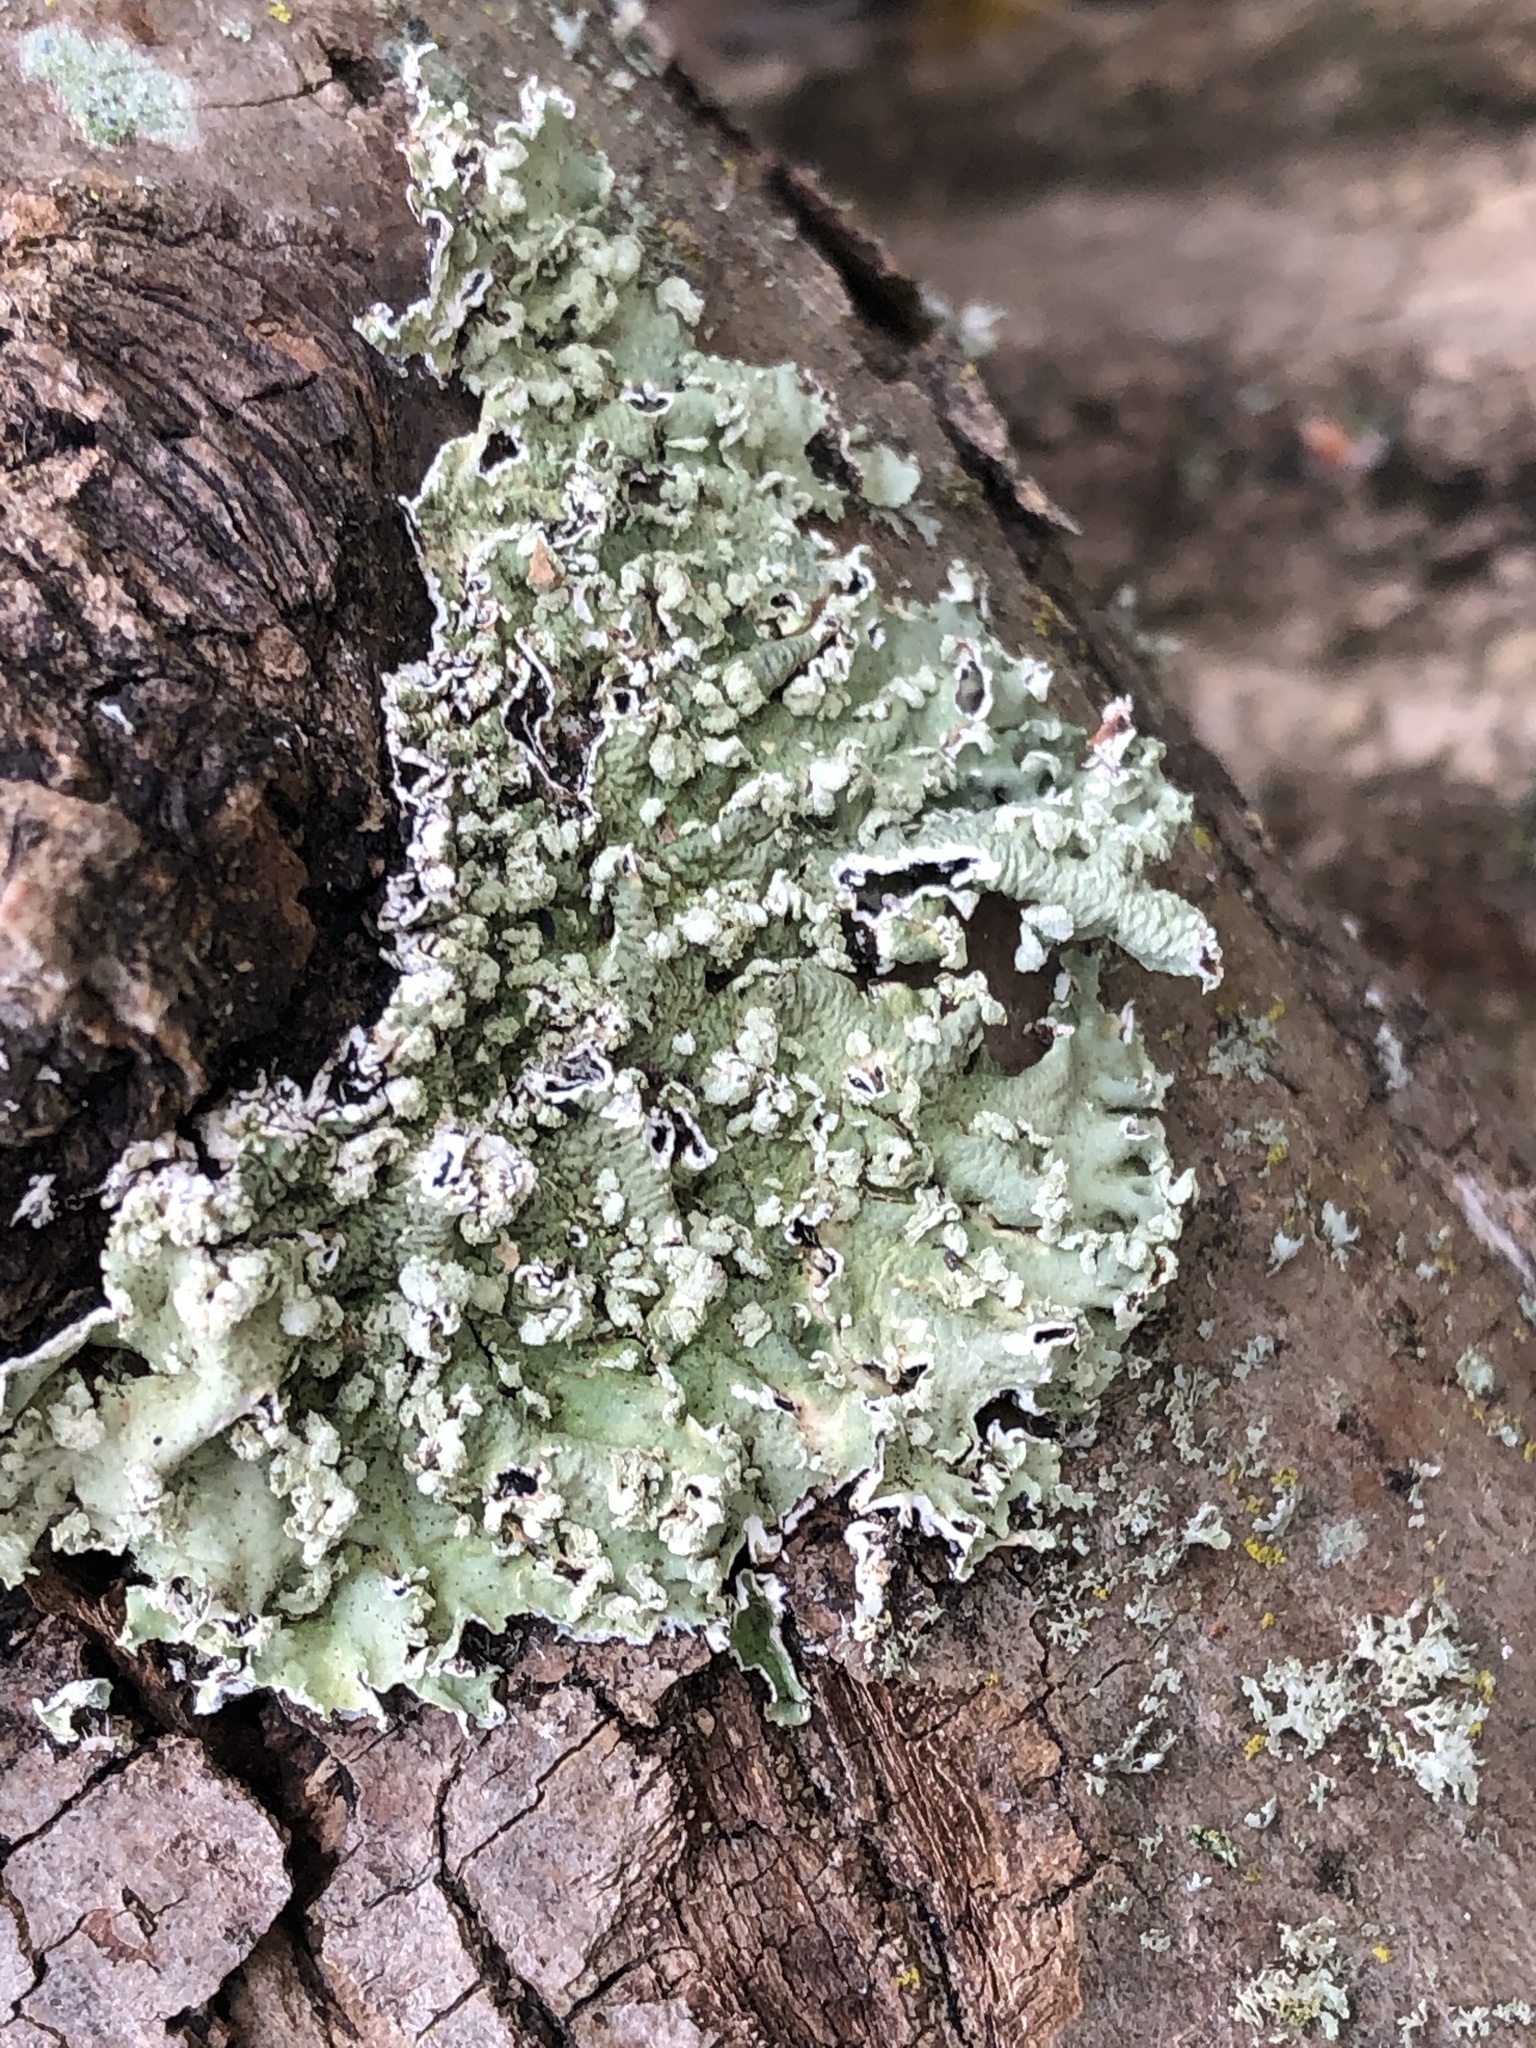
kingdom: Fungi
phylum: Ascomycota
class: Lecanoromycetes
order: Lecanorales
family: Parmeliaceae
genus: Flavopunctelia
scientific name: Flavopunctelia soredica
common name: Powder-edged speckled greenshield
